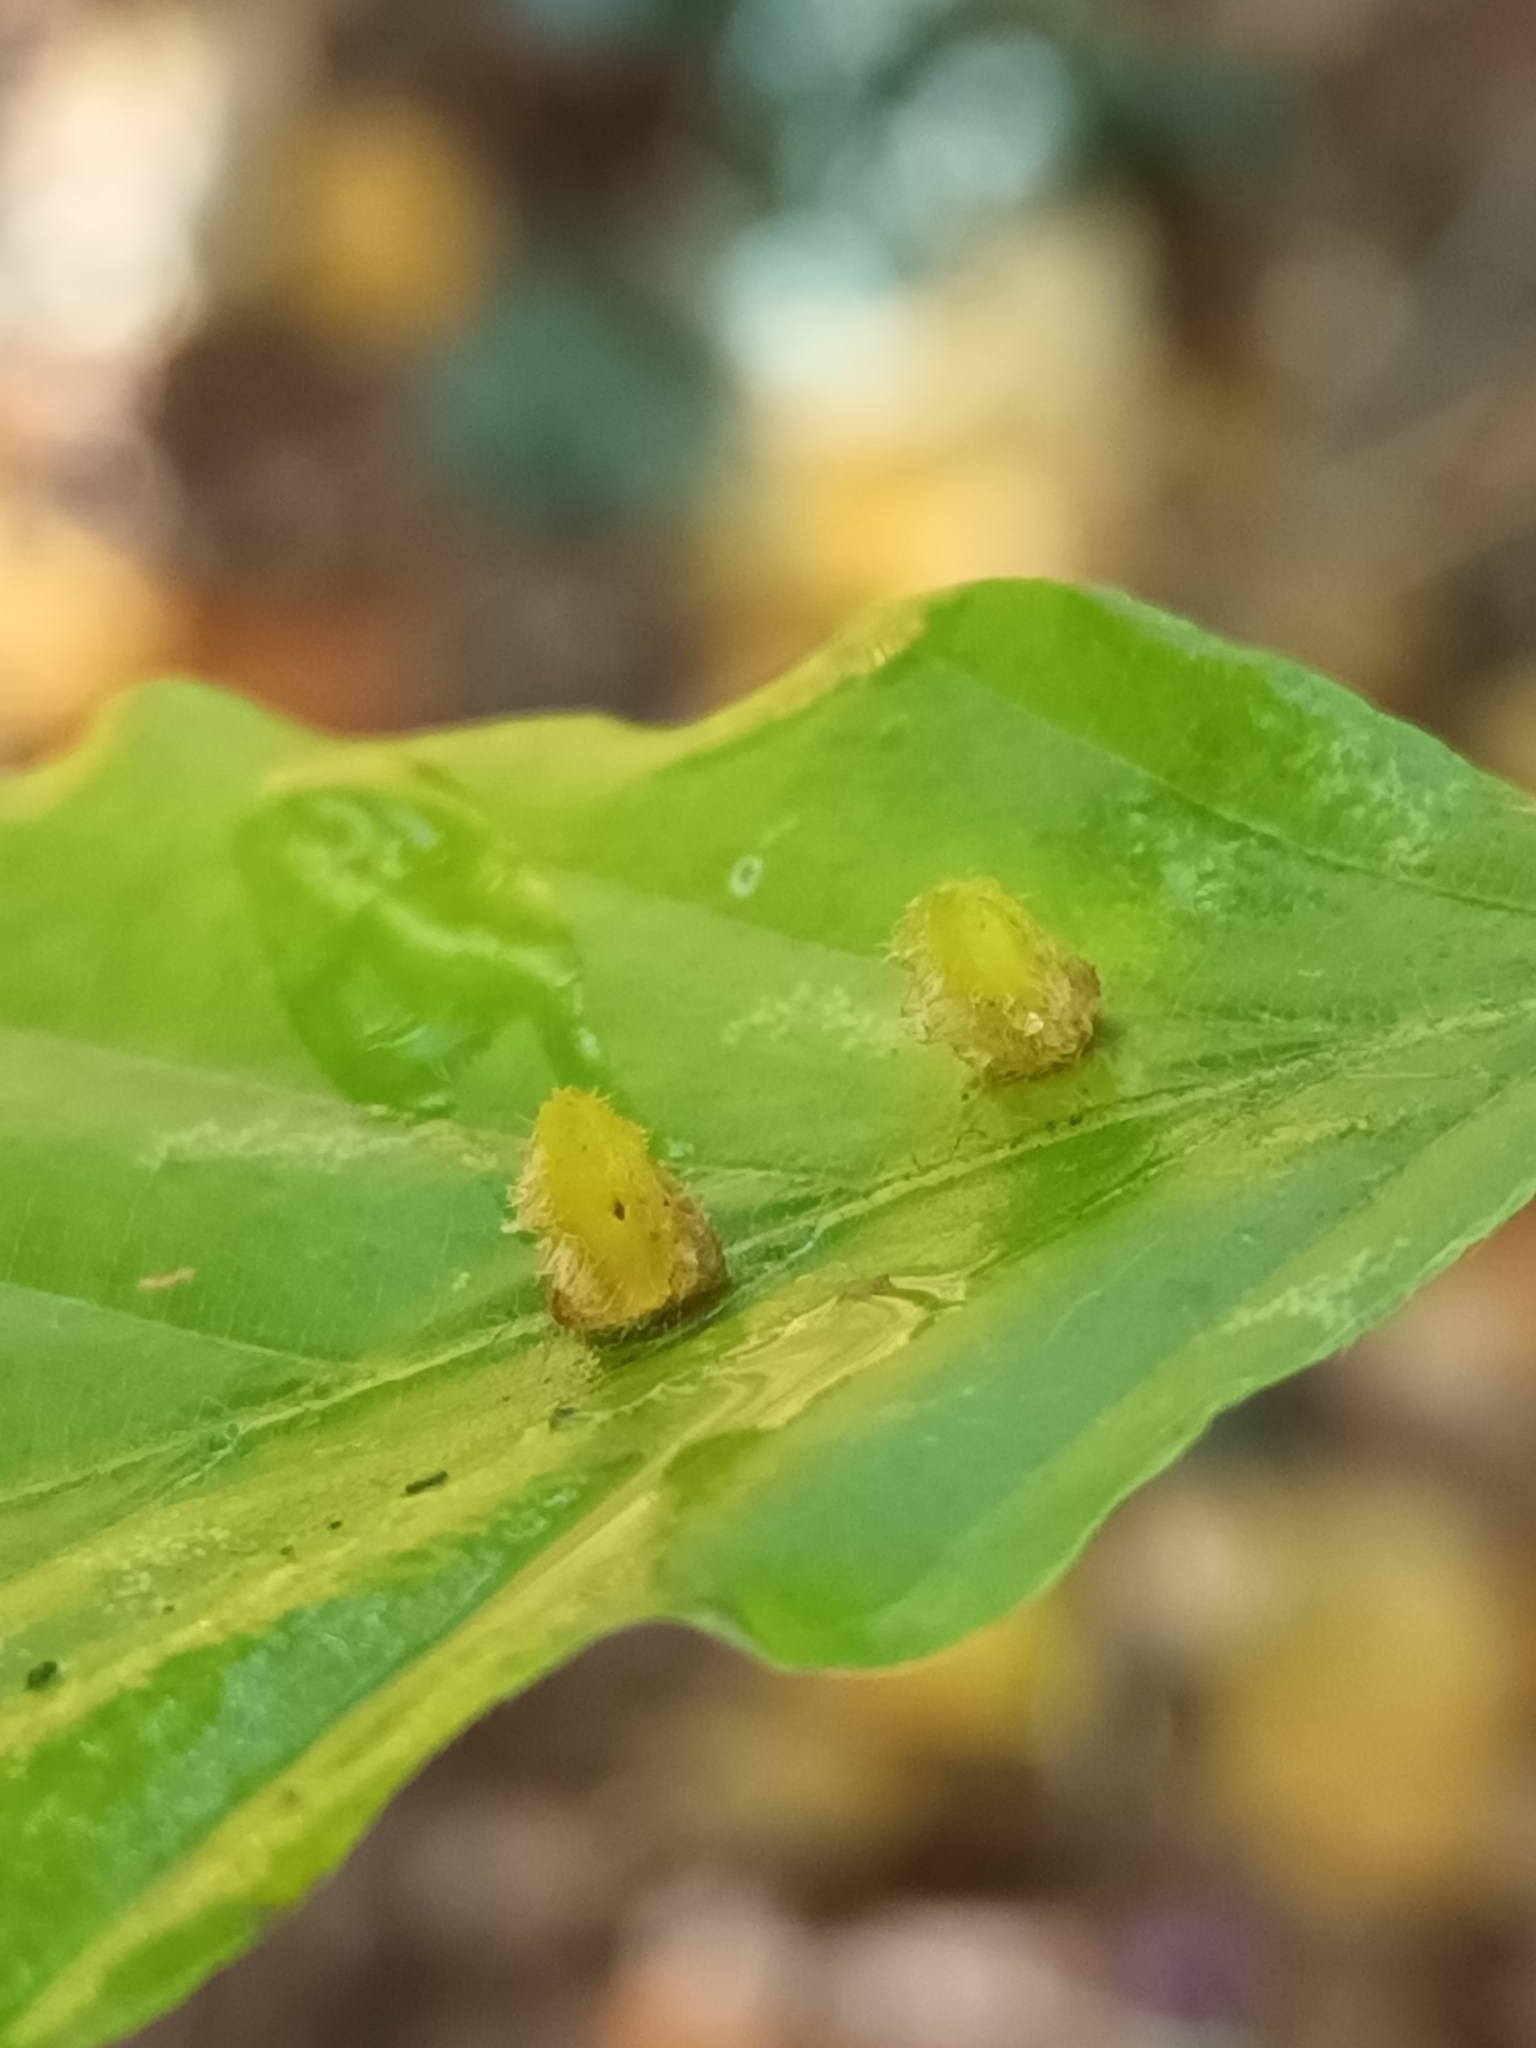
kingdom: Animalia
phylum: Arthropoda
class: Insecta
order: Diptera
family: Cecidomyiidae
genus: Hartigiola
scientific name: Hartigiola annulipes
